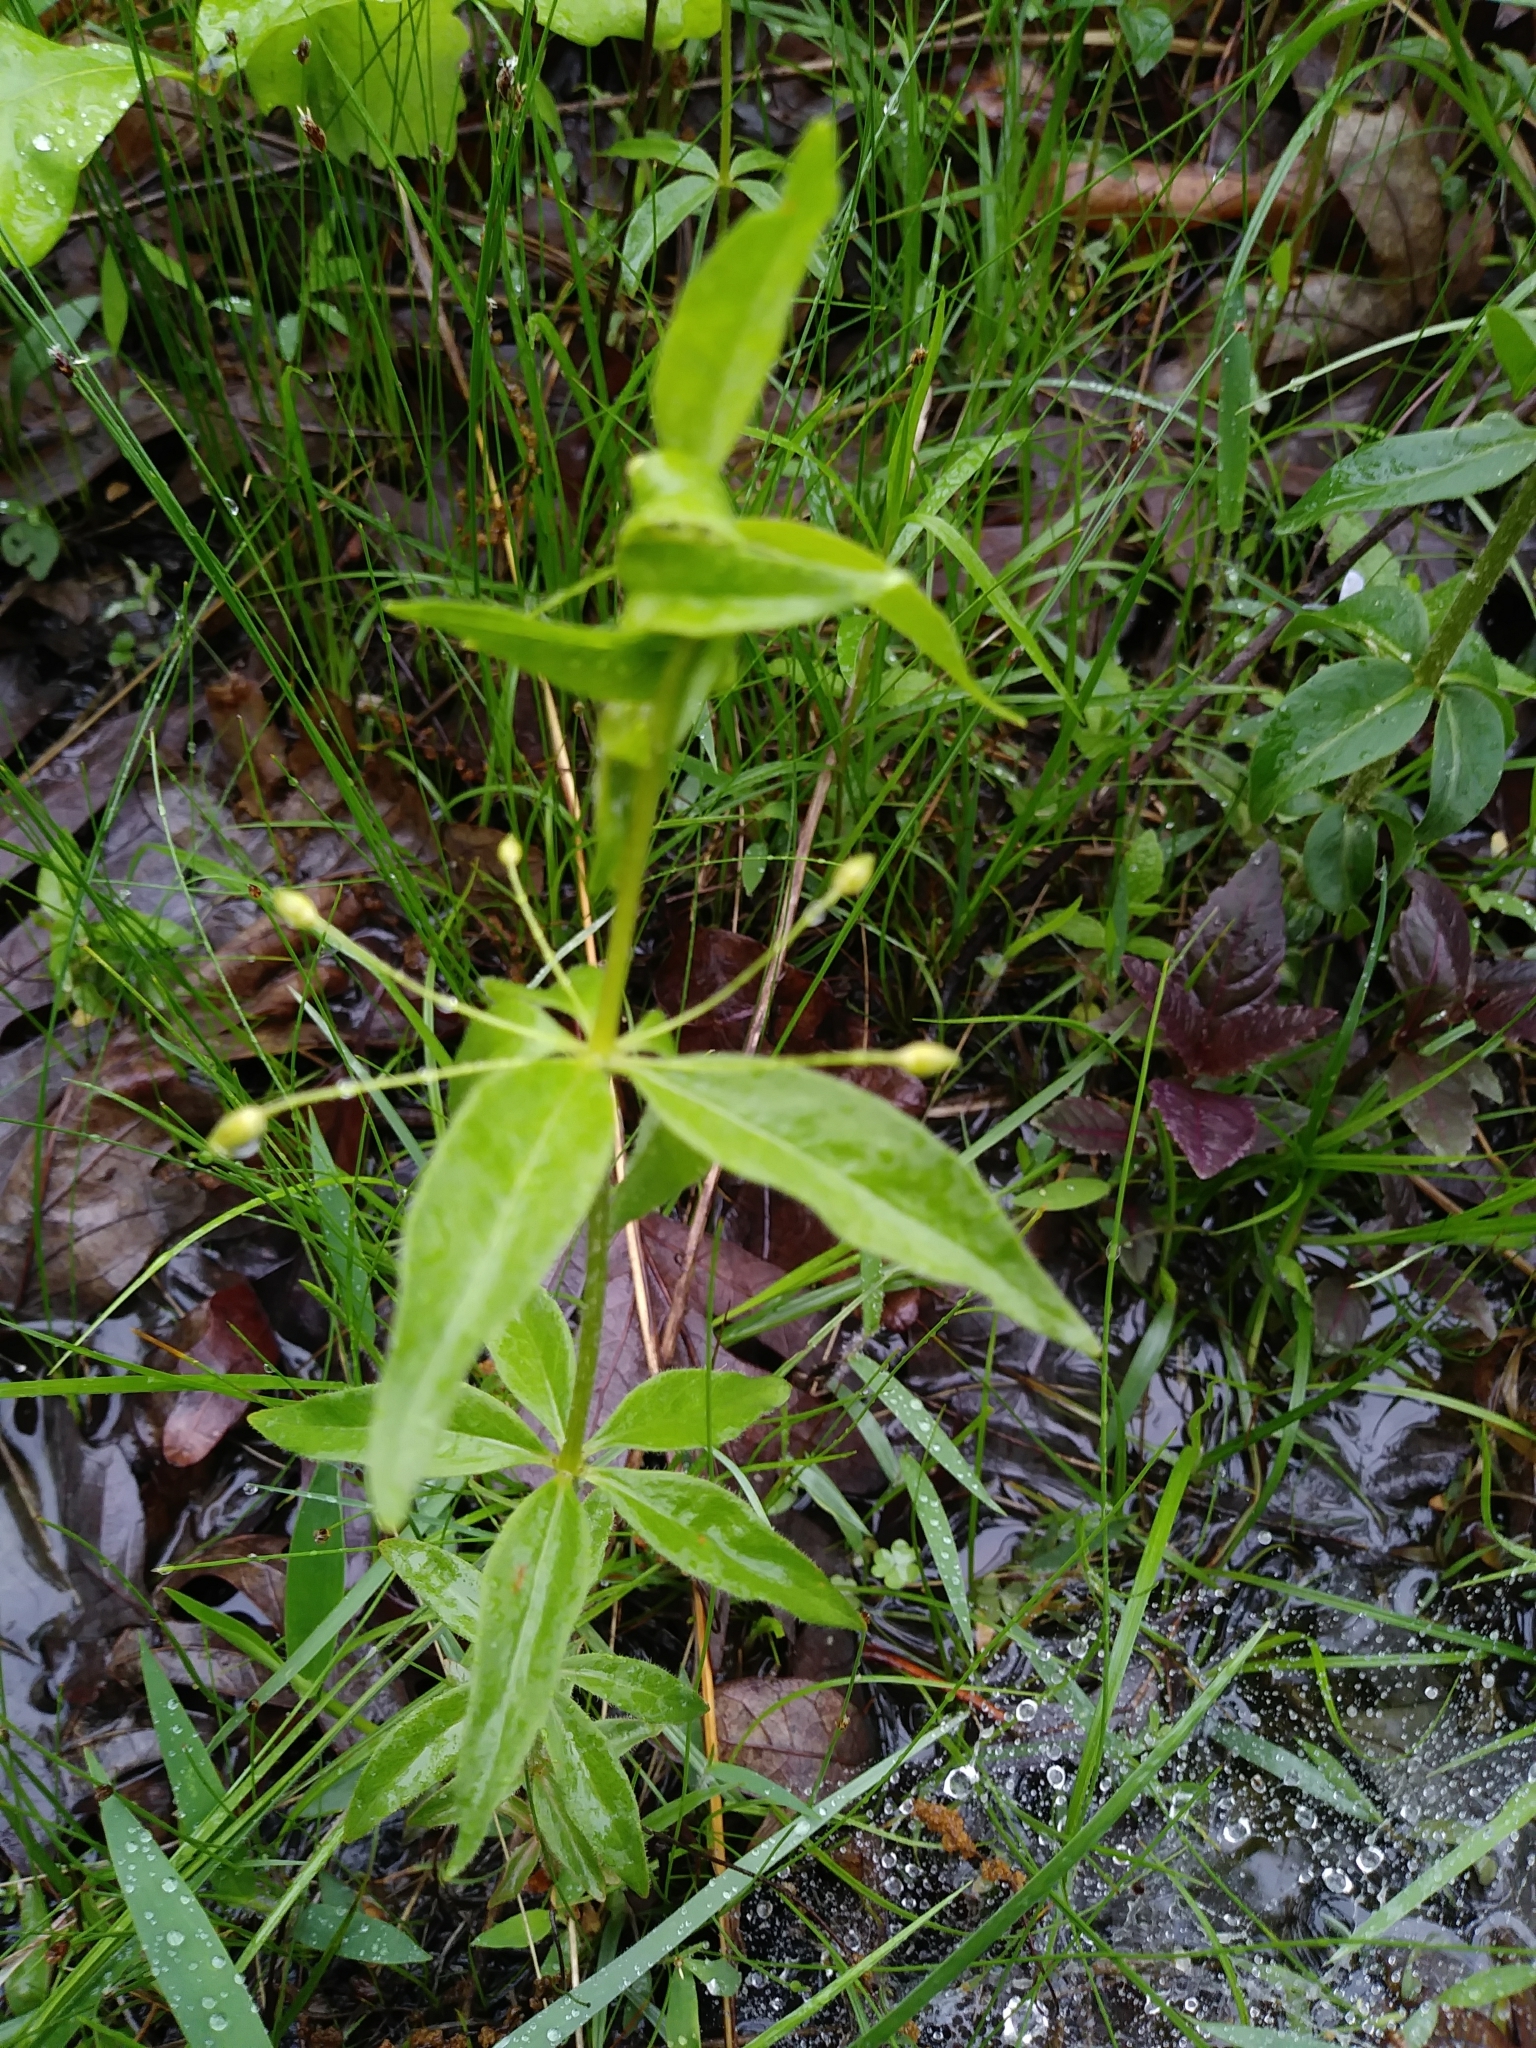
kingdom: Plantae
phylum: Tracheophyta
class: Magnoliopsida
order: Ericales
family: Primulaceae
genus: Lysimachia
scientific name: Lysimachia quadrifolia
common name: Whorled loosestrife
